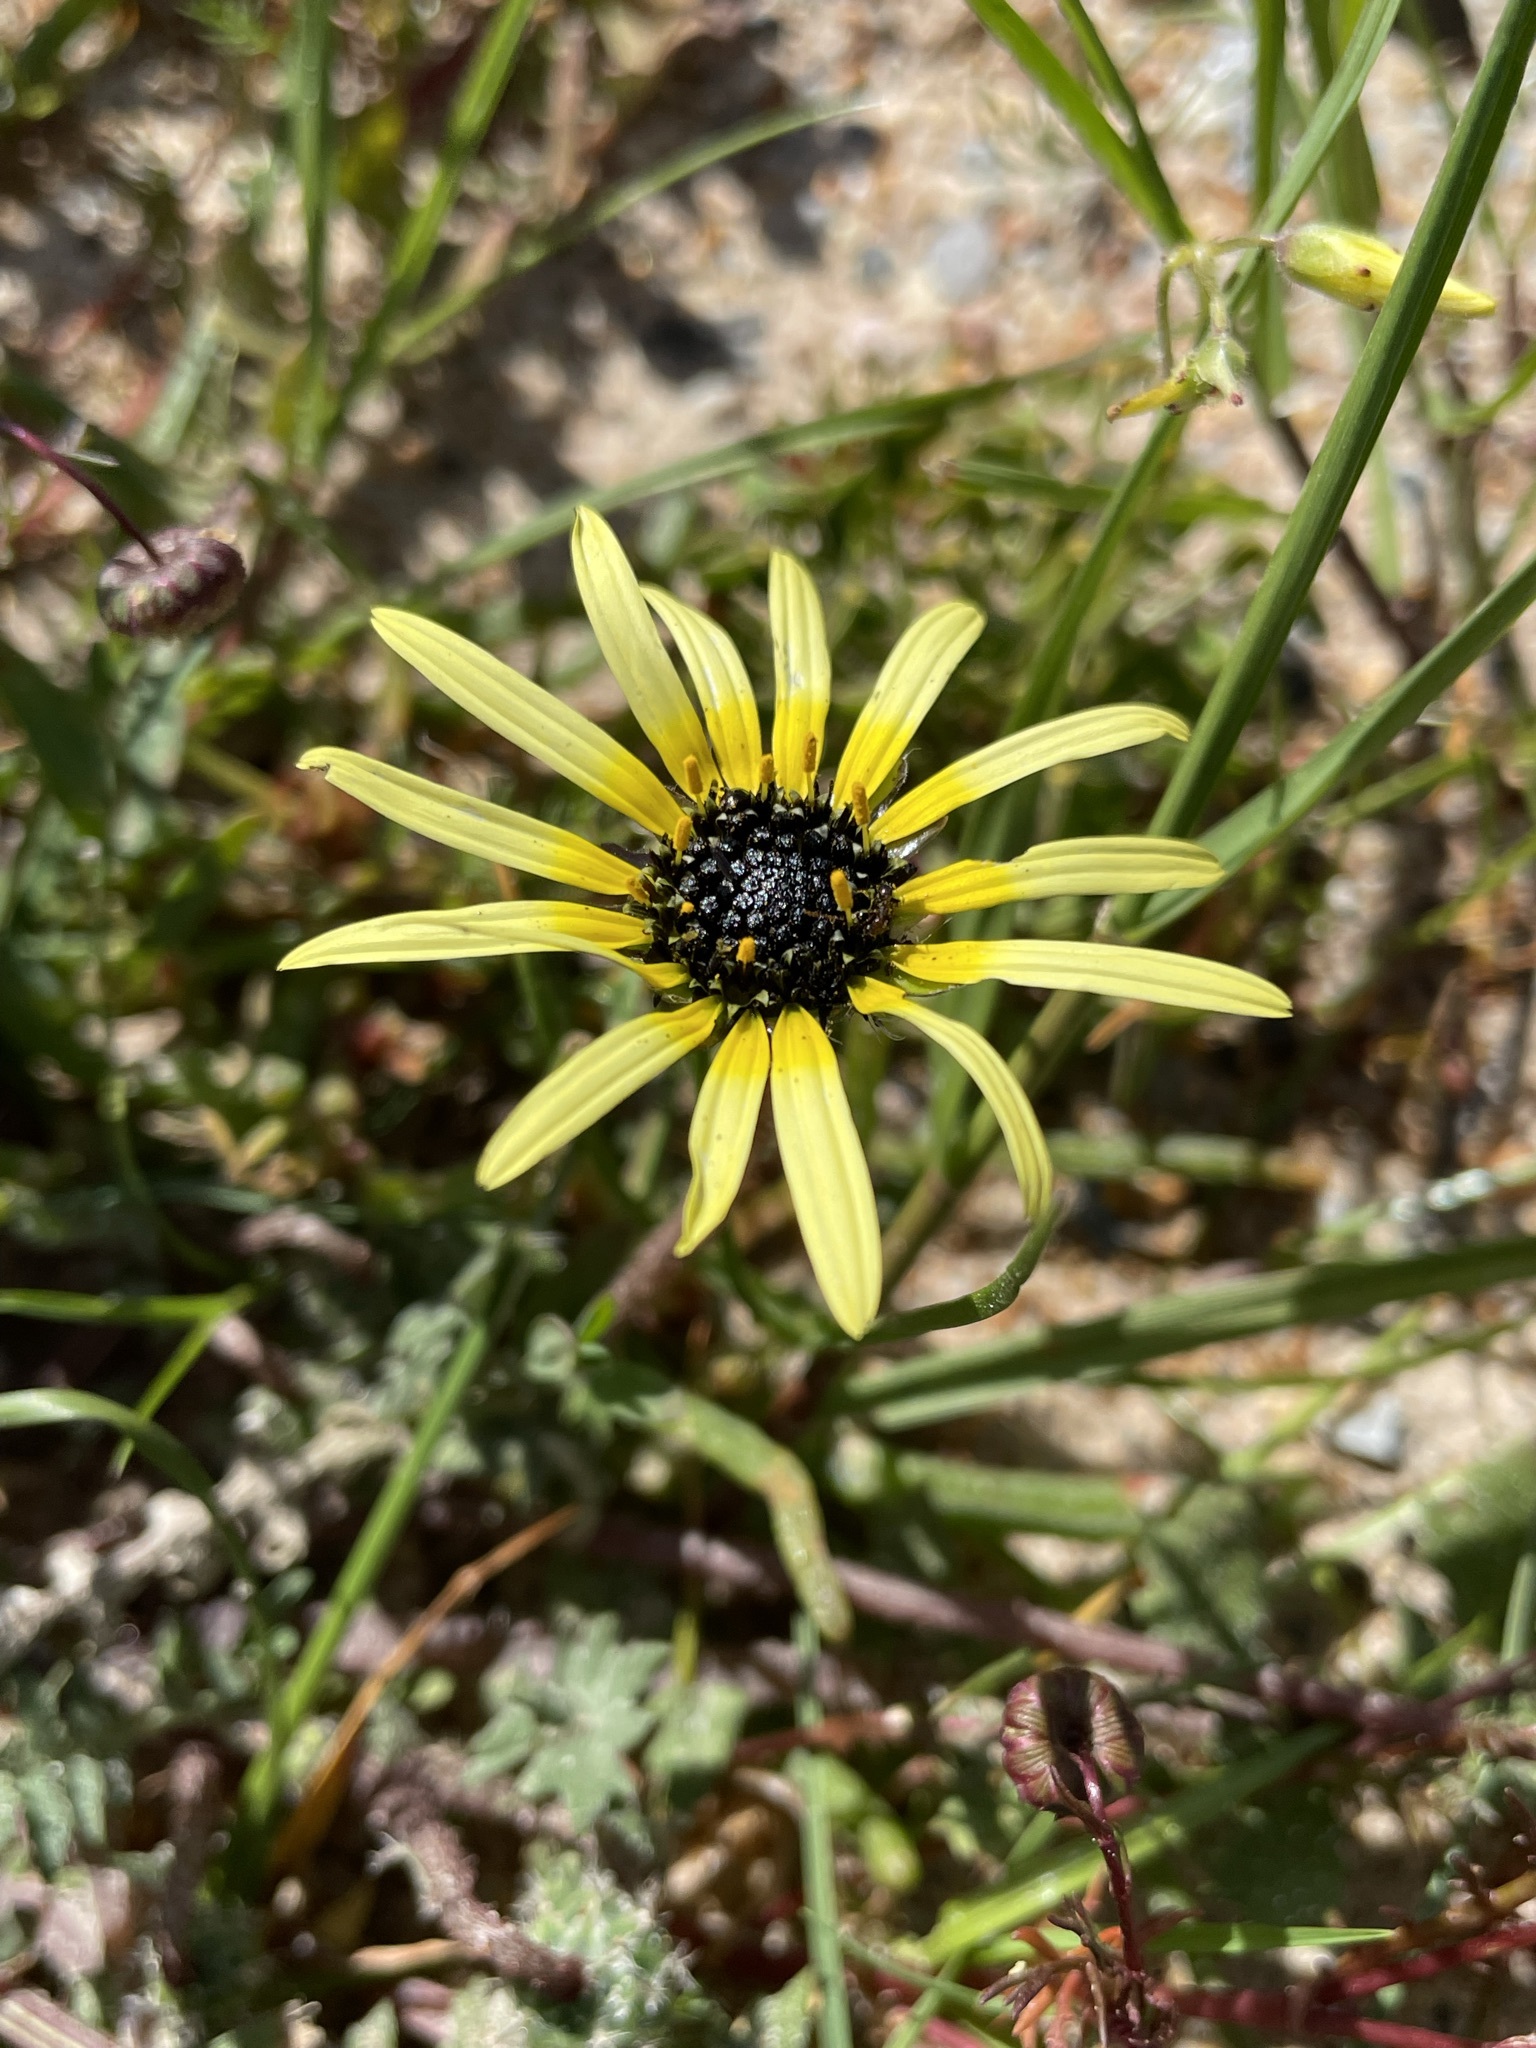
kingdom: Plantae
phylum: Tracheophyta
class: Magnoliopsida
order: Asterales
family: Asteraceae
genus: Arctotheca
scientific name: Arctotheca calendula
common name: Capeweed
